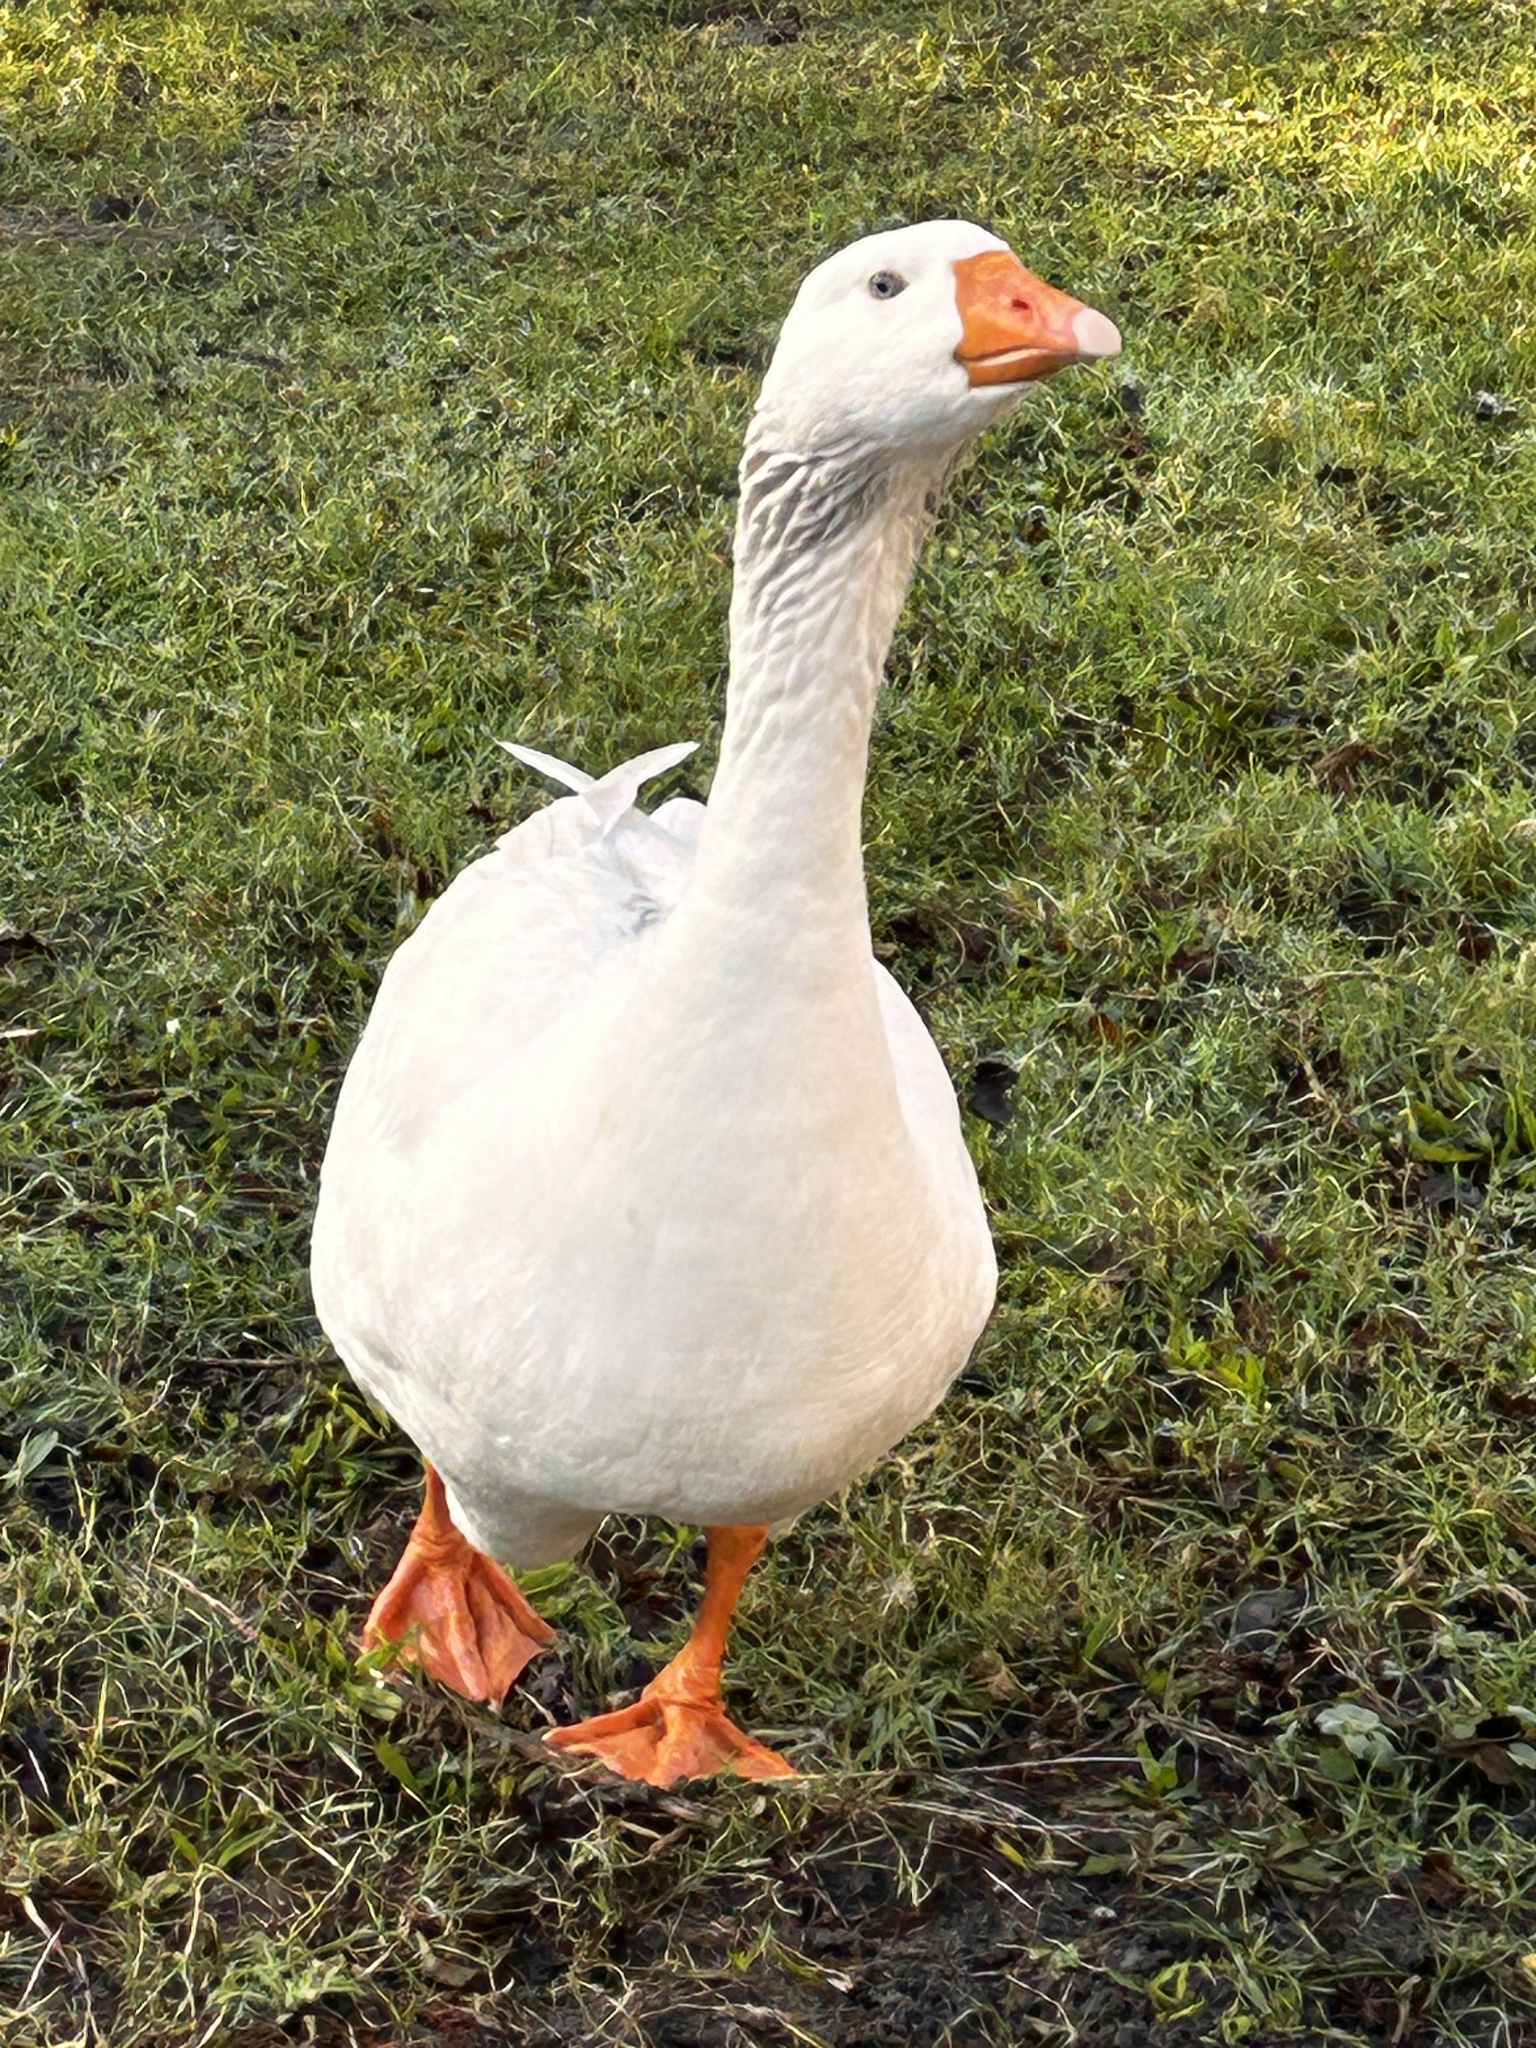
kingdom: Animalia
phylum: Chordata
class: Aves
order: Anseriformes
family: Anatidae
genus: Anser
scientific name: Anser anser
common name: Greylag goose
